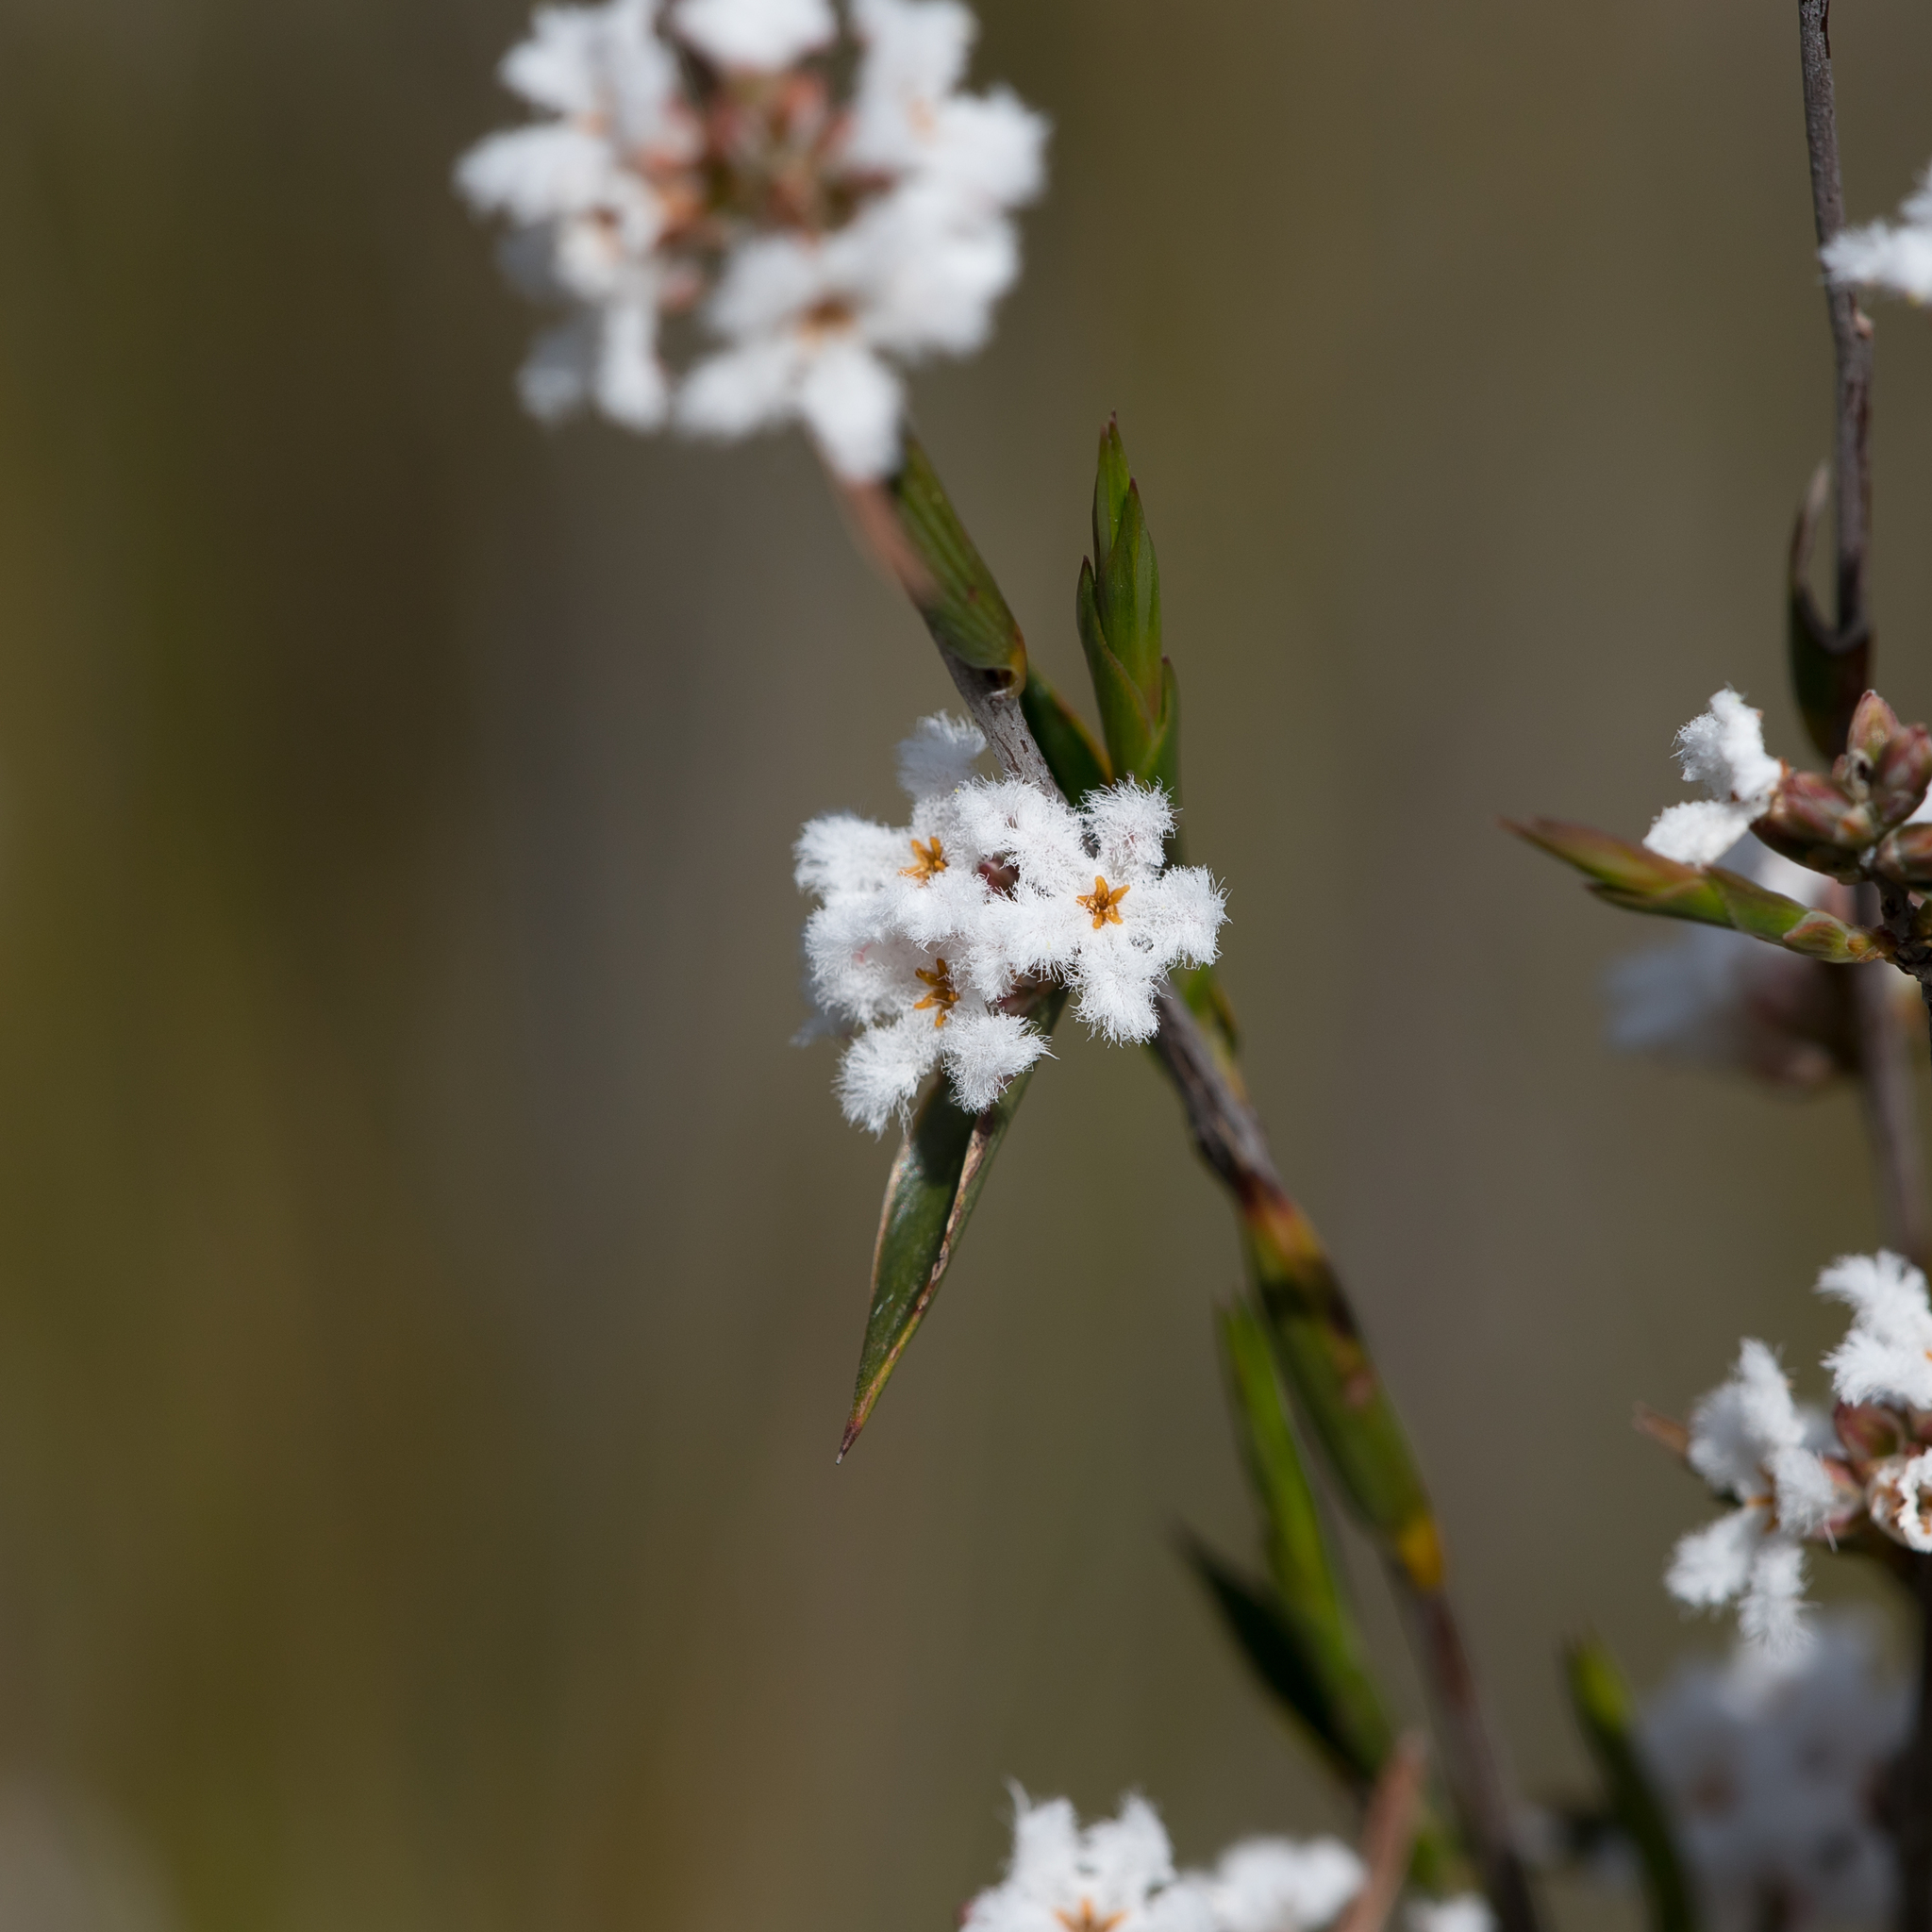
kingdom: Plantae
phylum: Tracheophyta
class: Magnoliopsida
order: Ericales
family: Ericaceae
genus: Leucopogon
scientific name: Leucopogon virgatus
